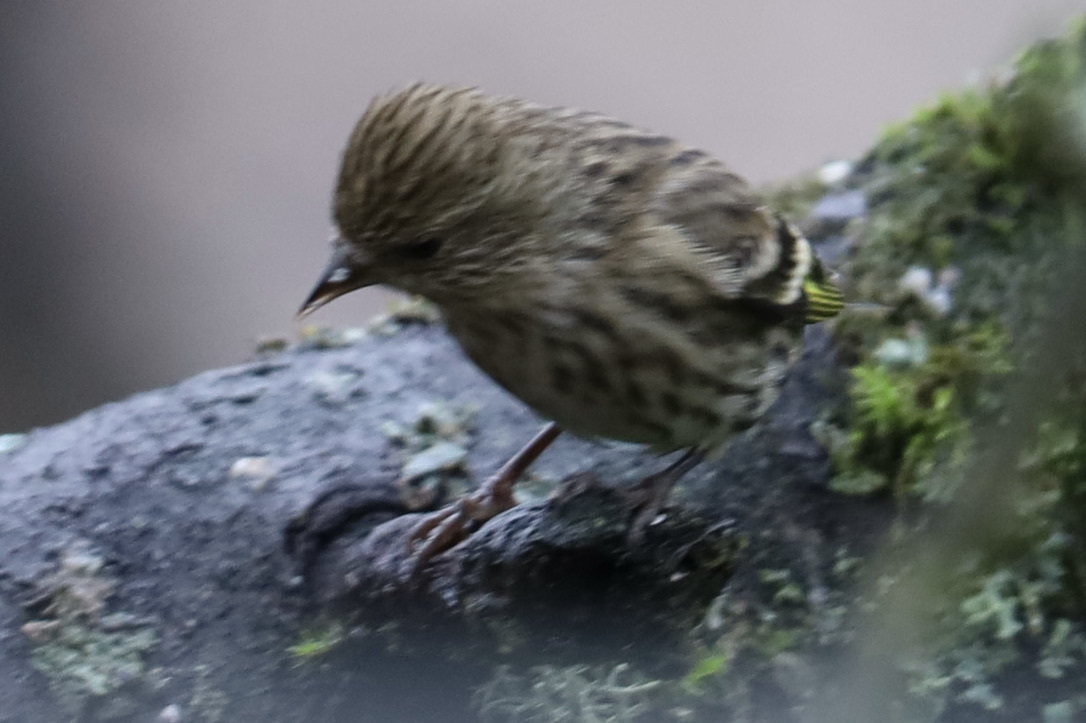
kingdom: Animalia
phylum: Chordata
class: Aves
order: Passeriformes
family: Fringillidae
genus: Spinus
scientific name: Spinus pinus
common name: Pine siskin
